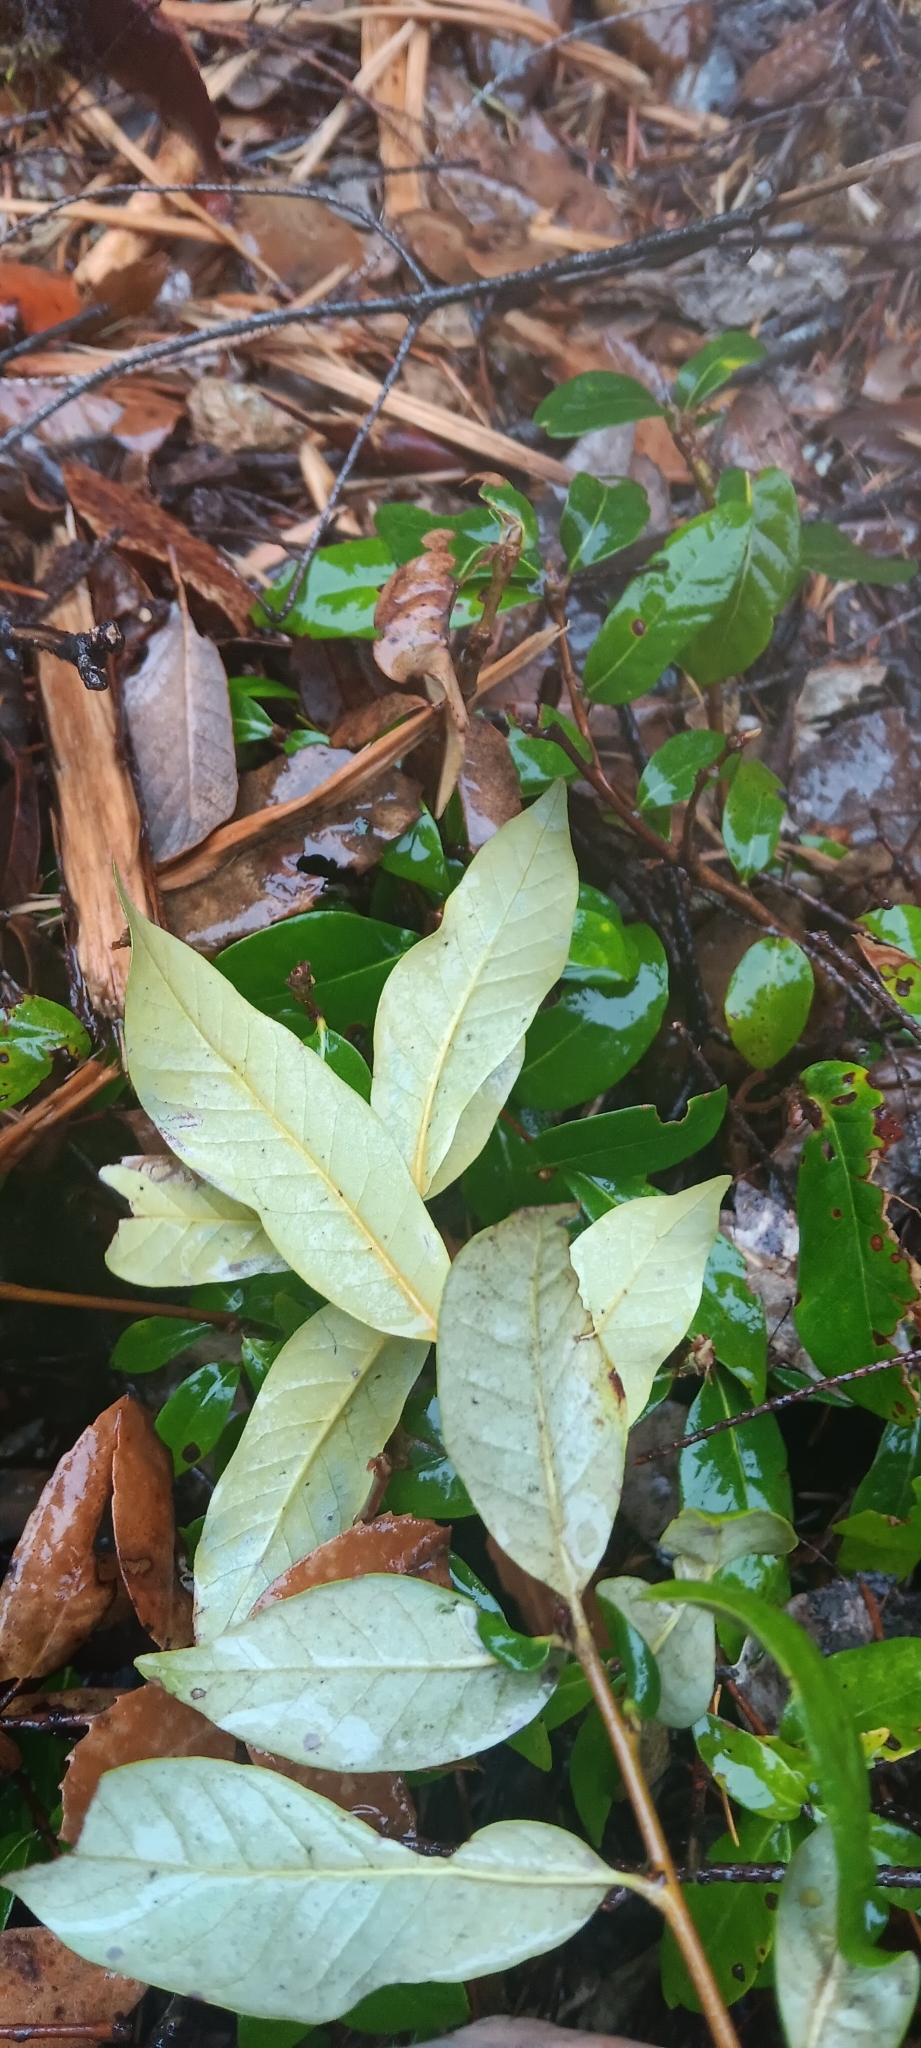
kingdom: Plantae
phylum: Tracheophyta
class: Magnoliopsida
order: Fagales
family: Fagaceae
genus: Chrysolepis
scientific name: Chrysolepis chrysophylla
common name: Giant chinquapin
